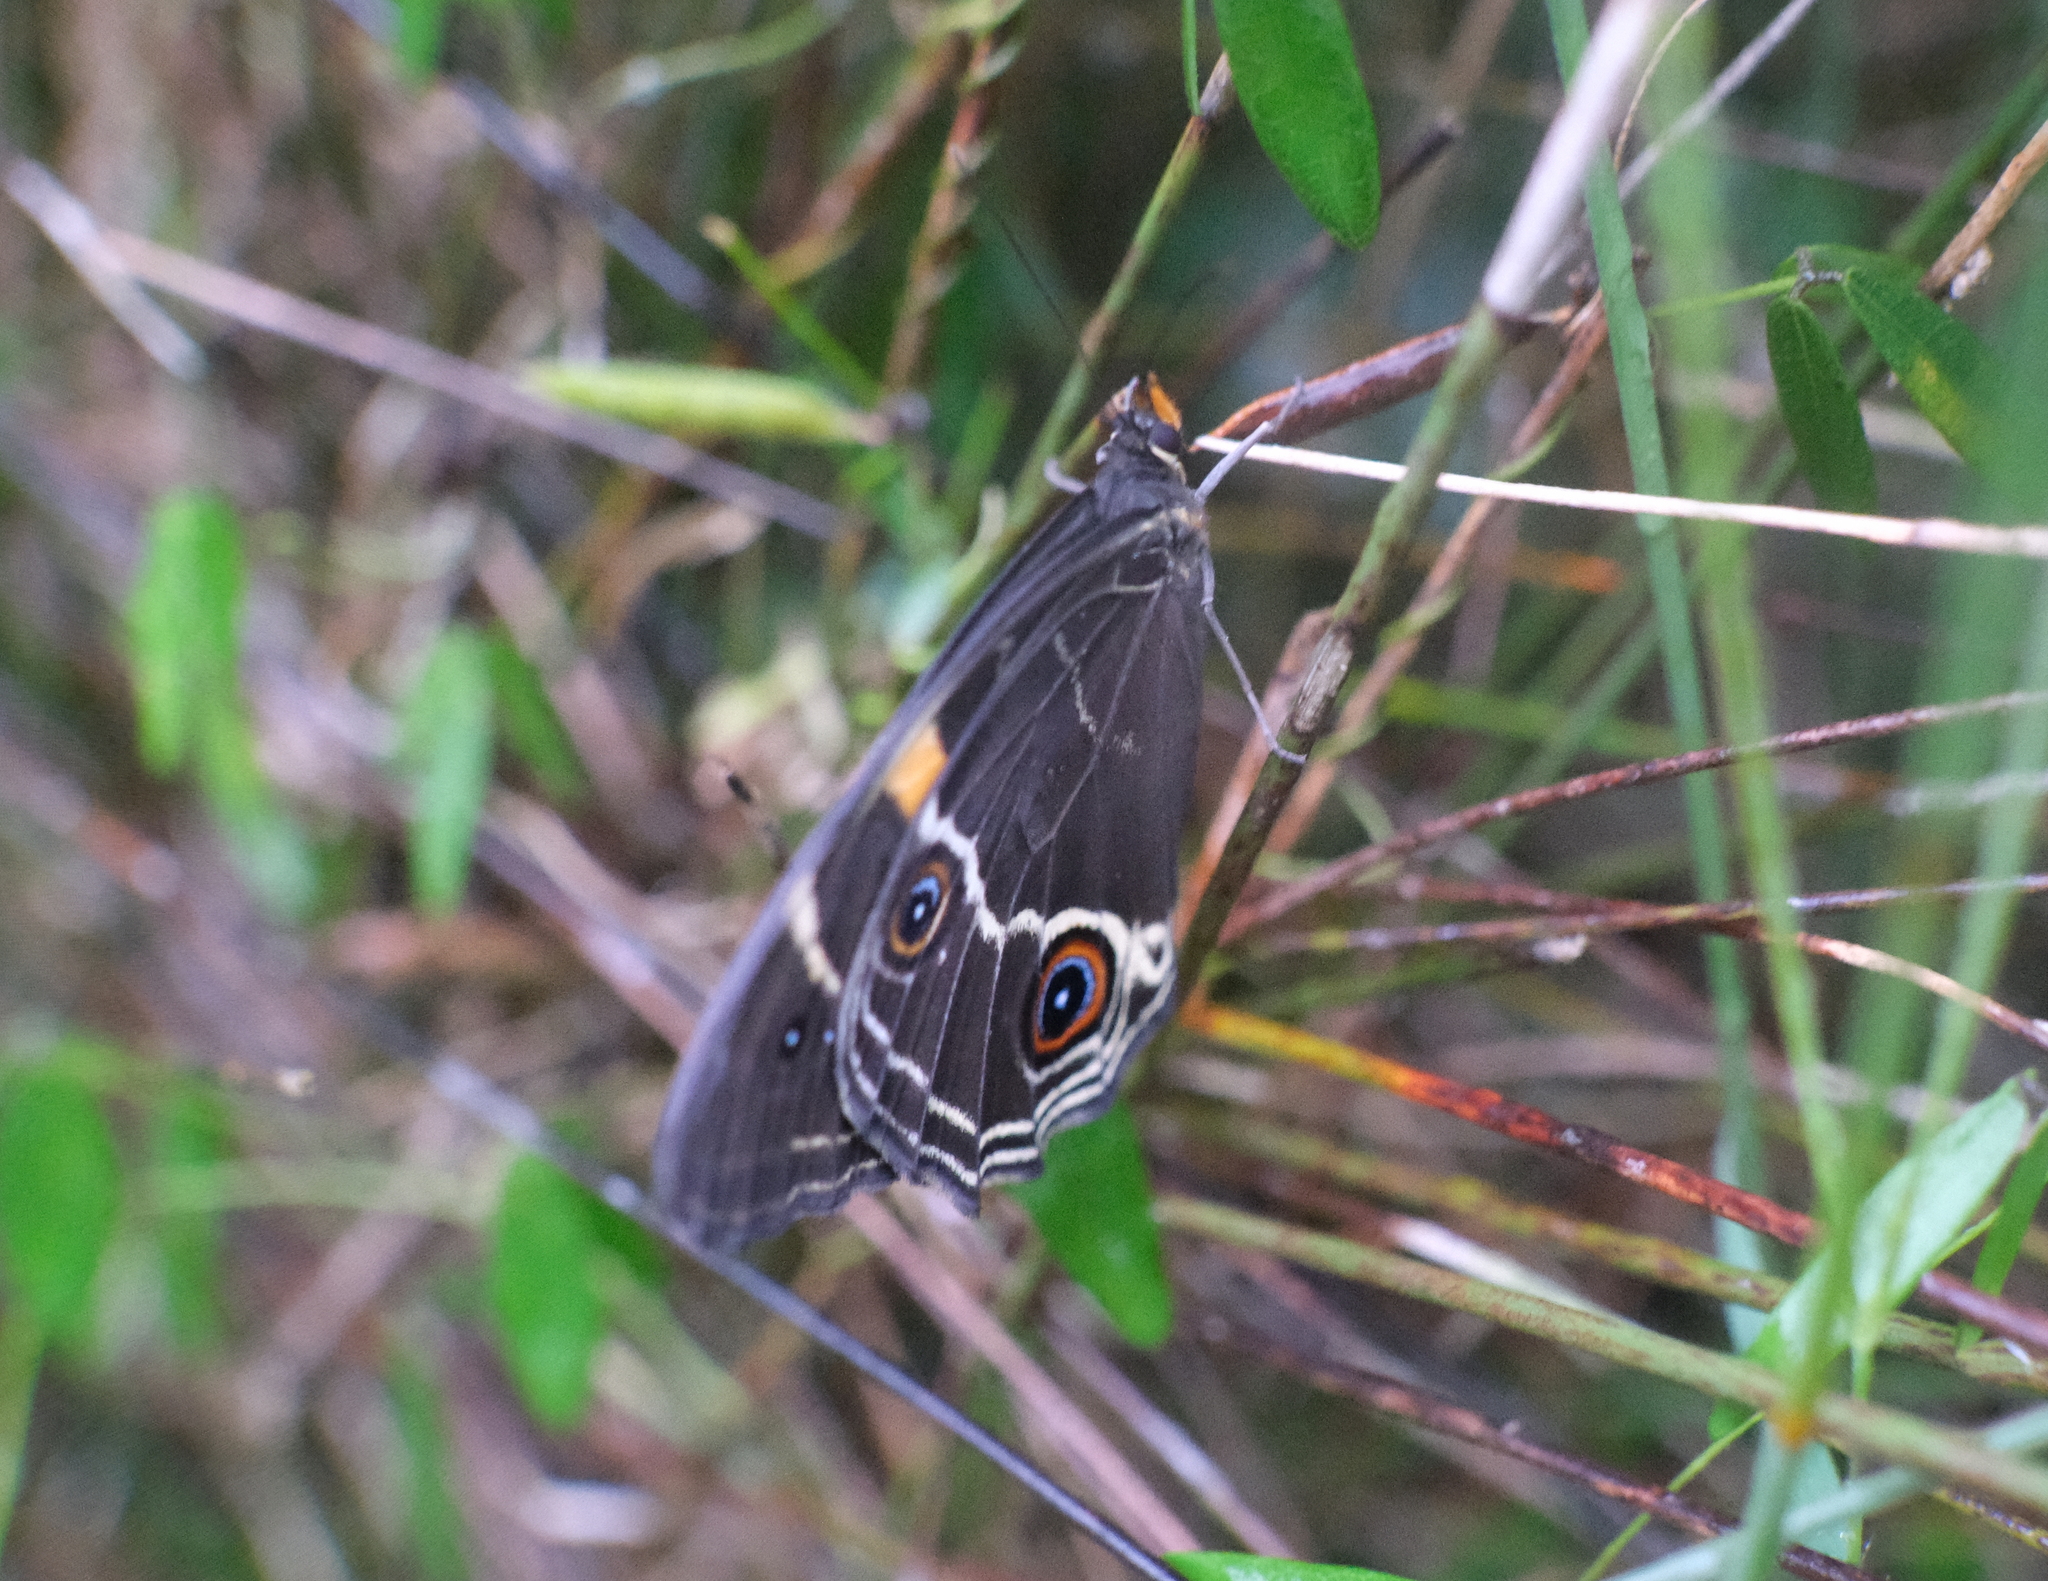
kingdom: Animalia
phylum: Arthropoda
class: Insecta
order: Lepidoptera
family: Nymphalidae
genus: Tisiphone
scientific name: Tisiphone abeona
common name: Swordgrass brown
